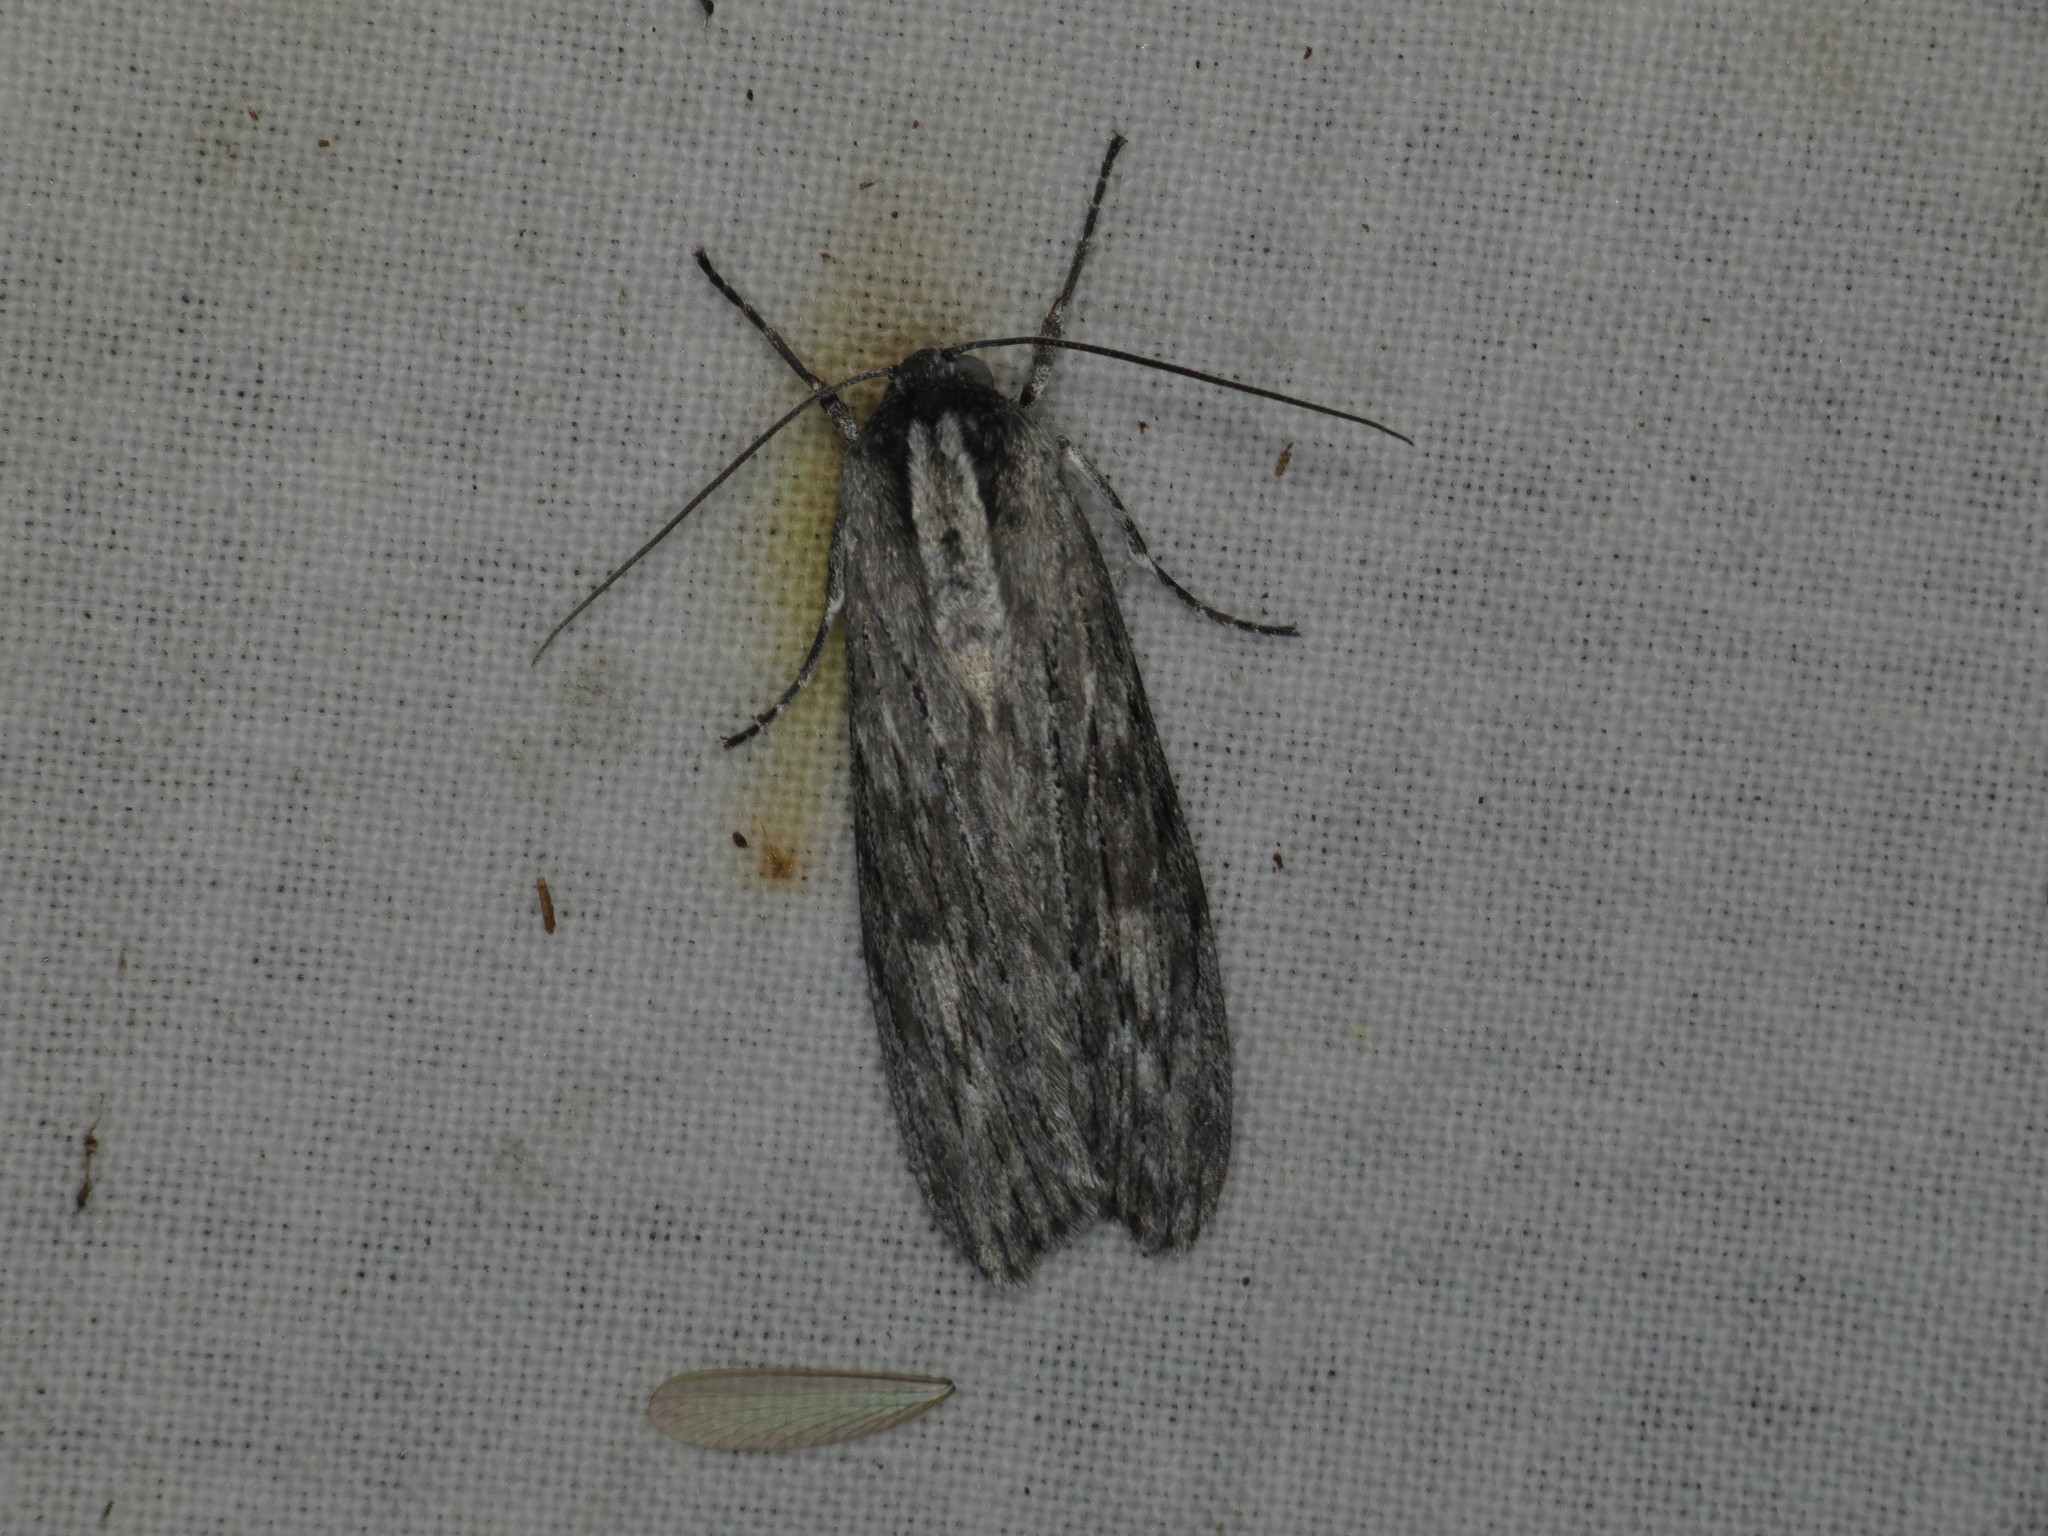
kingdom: Animalia
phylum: Arthropoda
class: Insecta
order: Lepidoptera
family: Geometridae
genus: Capusa
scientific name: Capusa senilis
